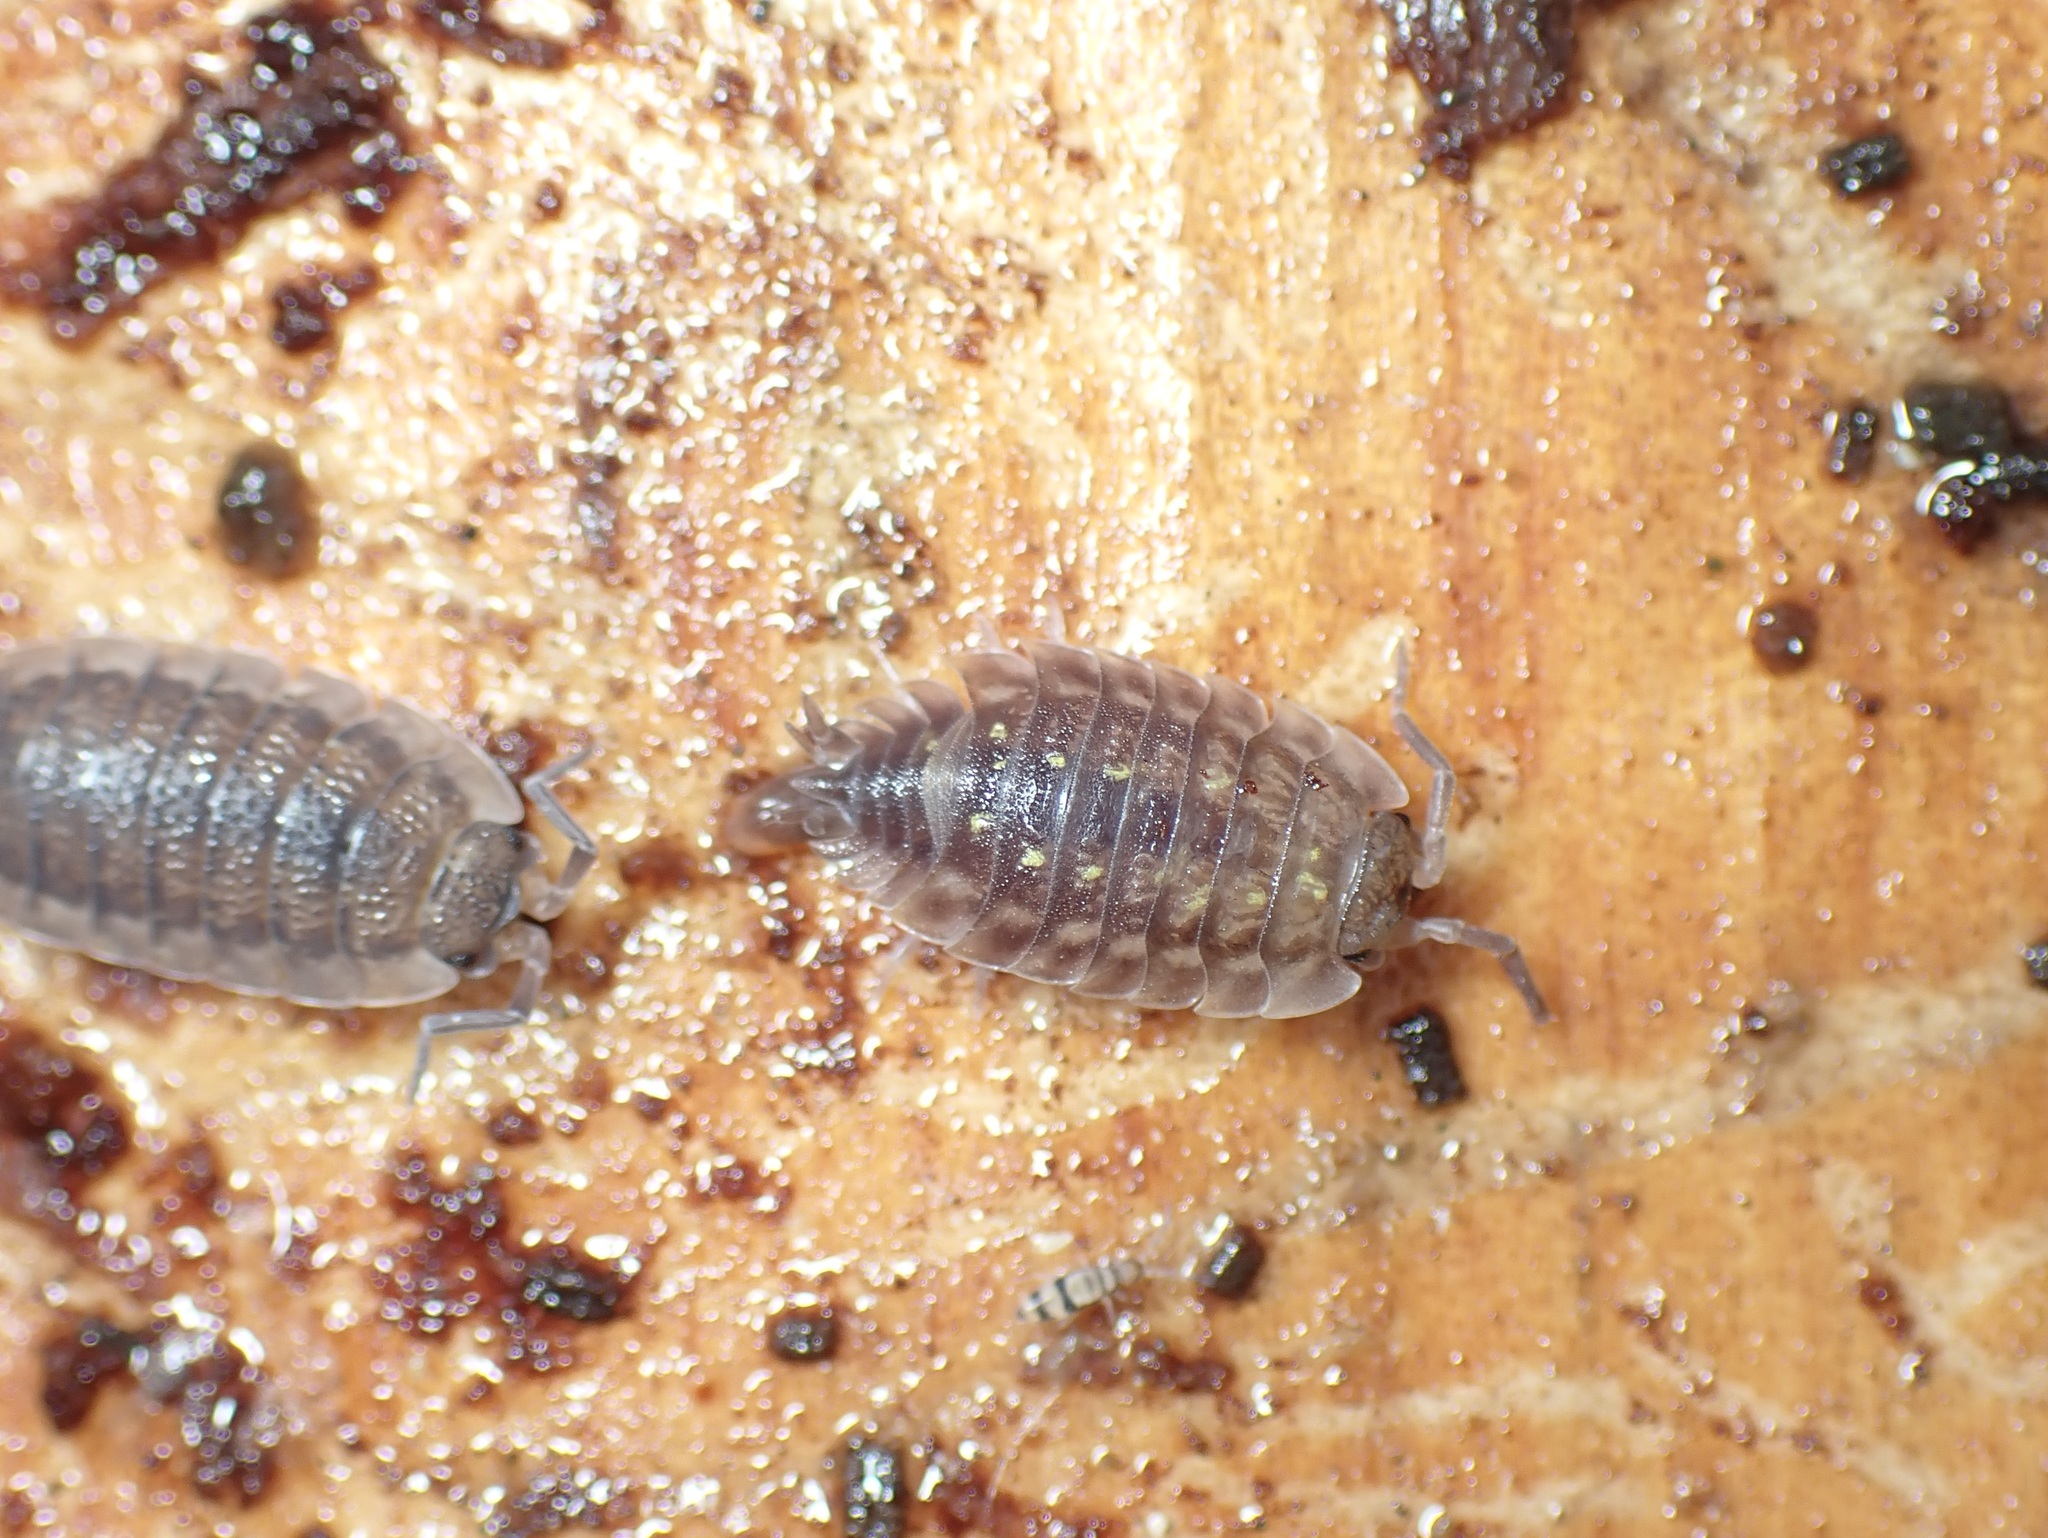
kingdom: Animalia
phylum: Arthropoda
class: Malacostraca
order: Isopoda
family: Oniscidae
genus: Oniscus
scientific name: Oniscus asellus
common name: Common shiny woodlouse
